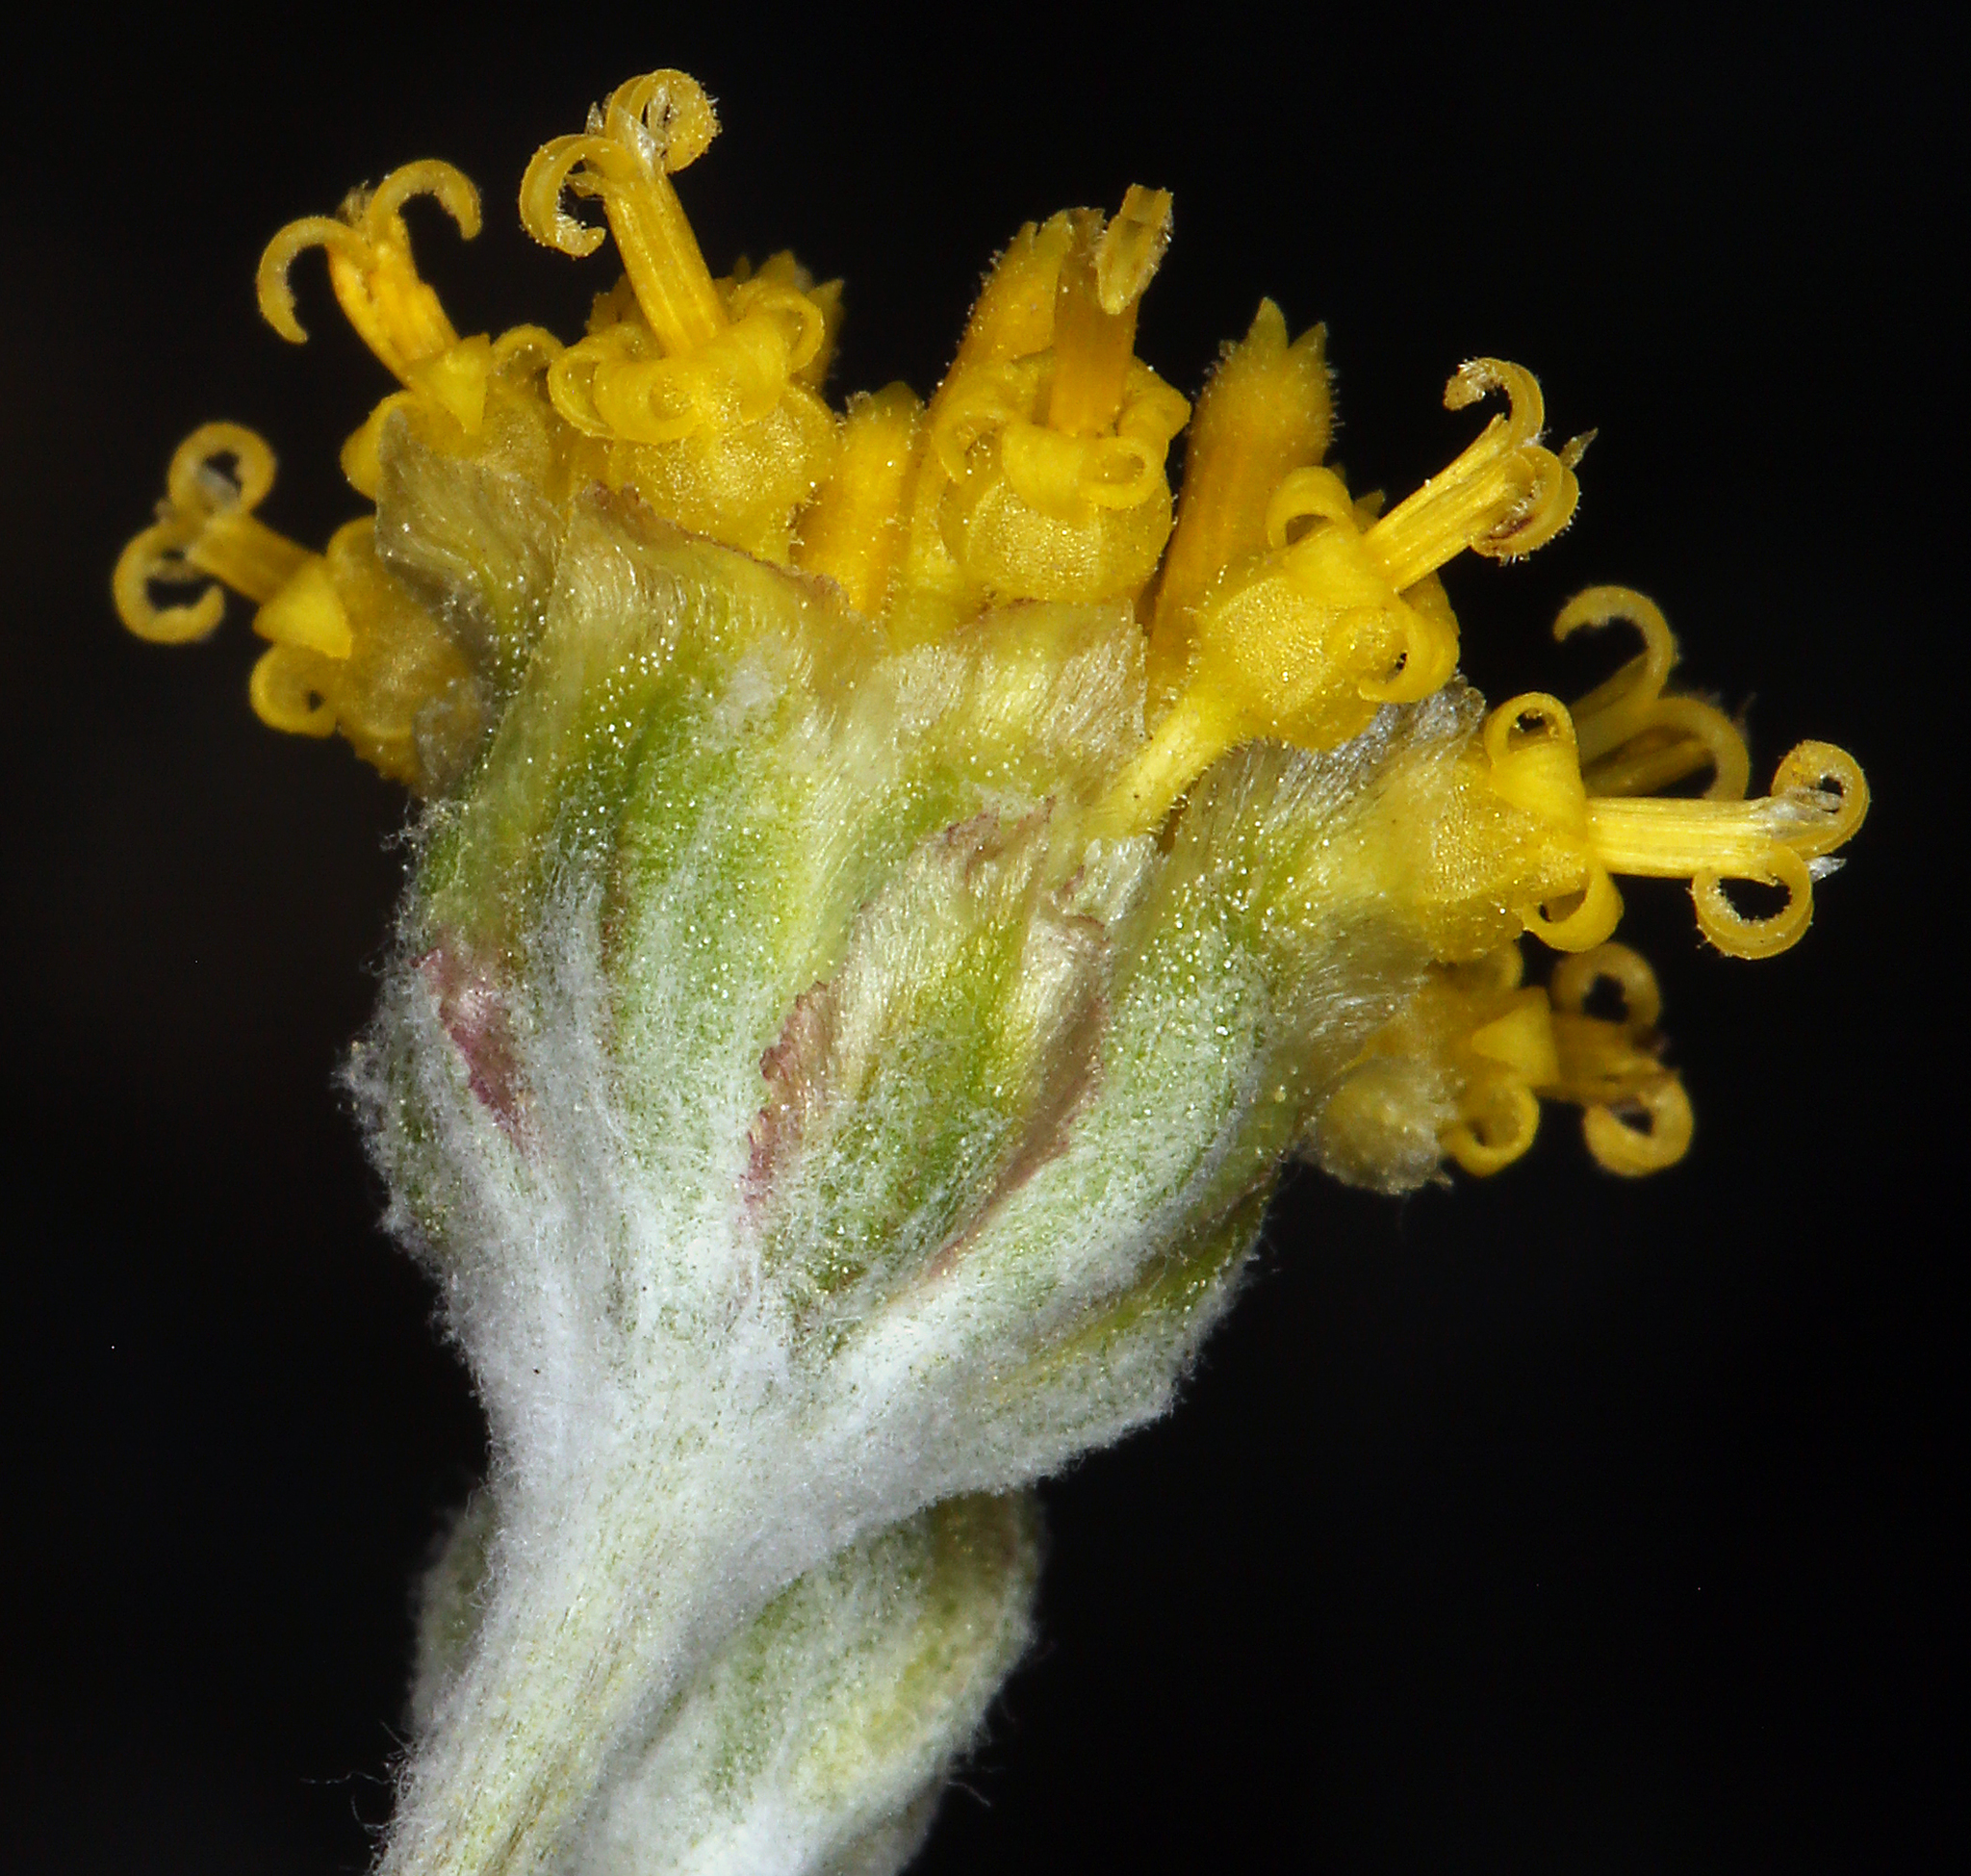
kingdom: Plantae
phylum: Tracheophyta
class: Magnoliopsida
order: Asterales
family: Asteraceae
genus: Hymenopappus
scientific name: Hymenopappus filifolius
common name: Columbia cutleaf
